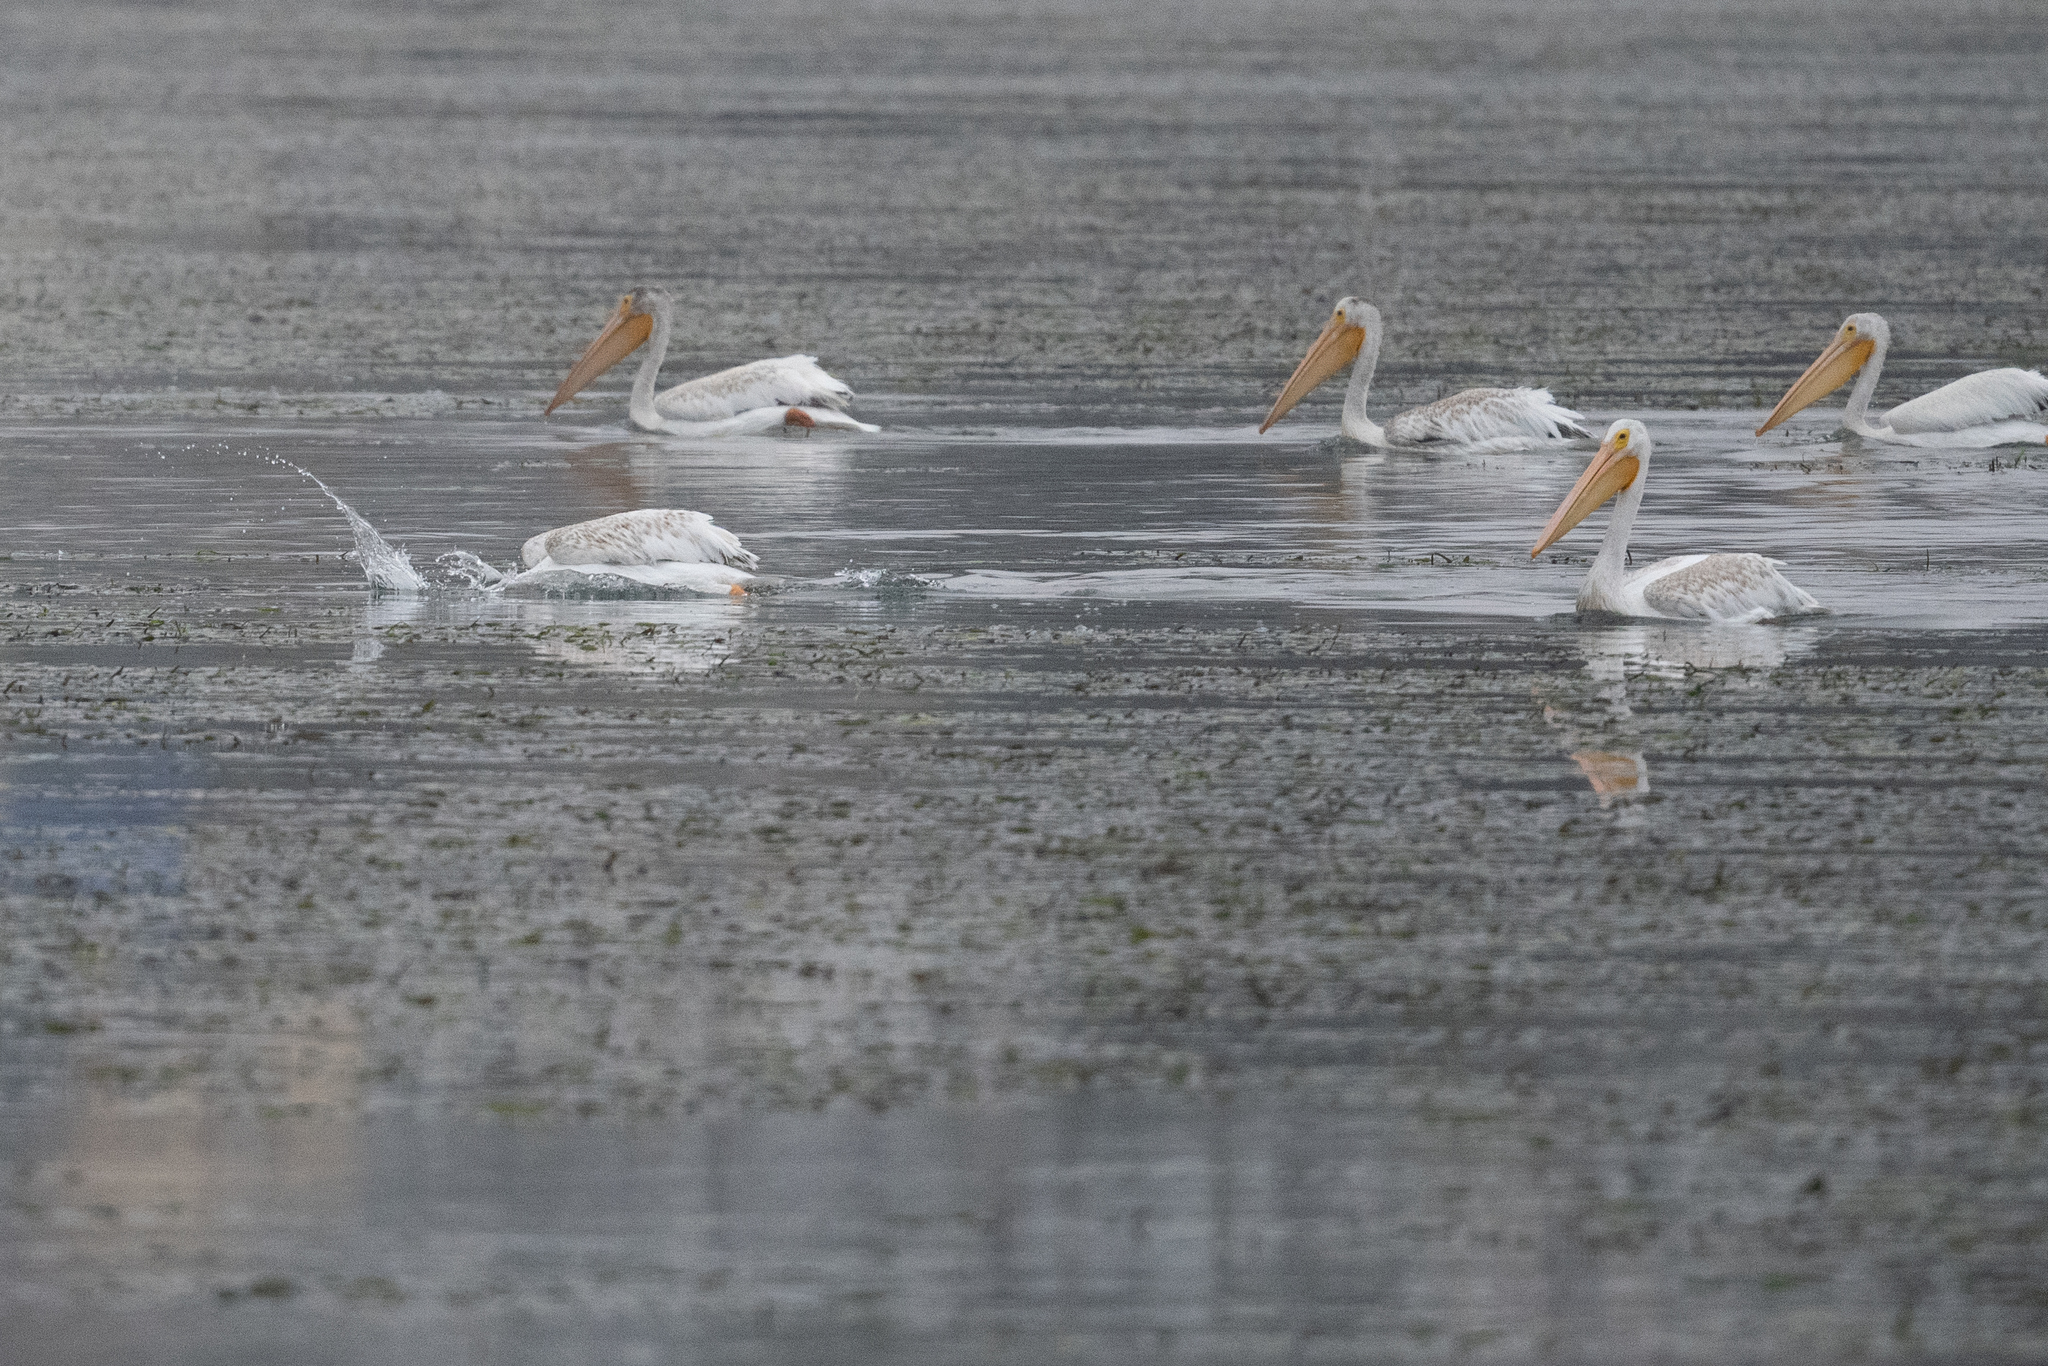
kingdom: Animalia
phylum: Chordata
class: Aves
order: Pelecaniformes
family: Pelecanidae
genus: Pelecanus
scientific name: Pelecanus erythrorhynchos
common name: American white pelican
